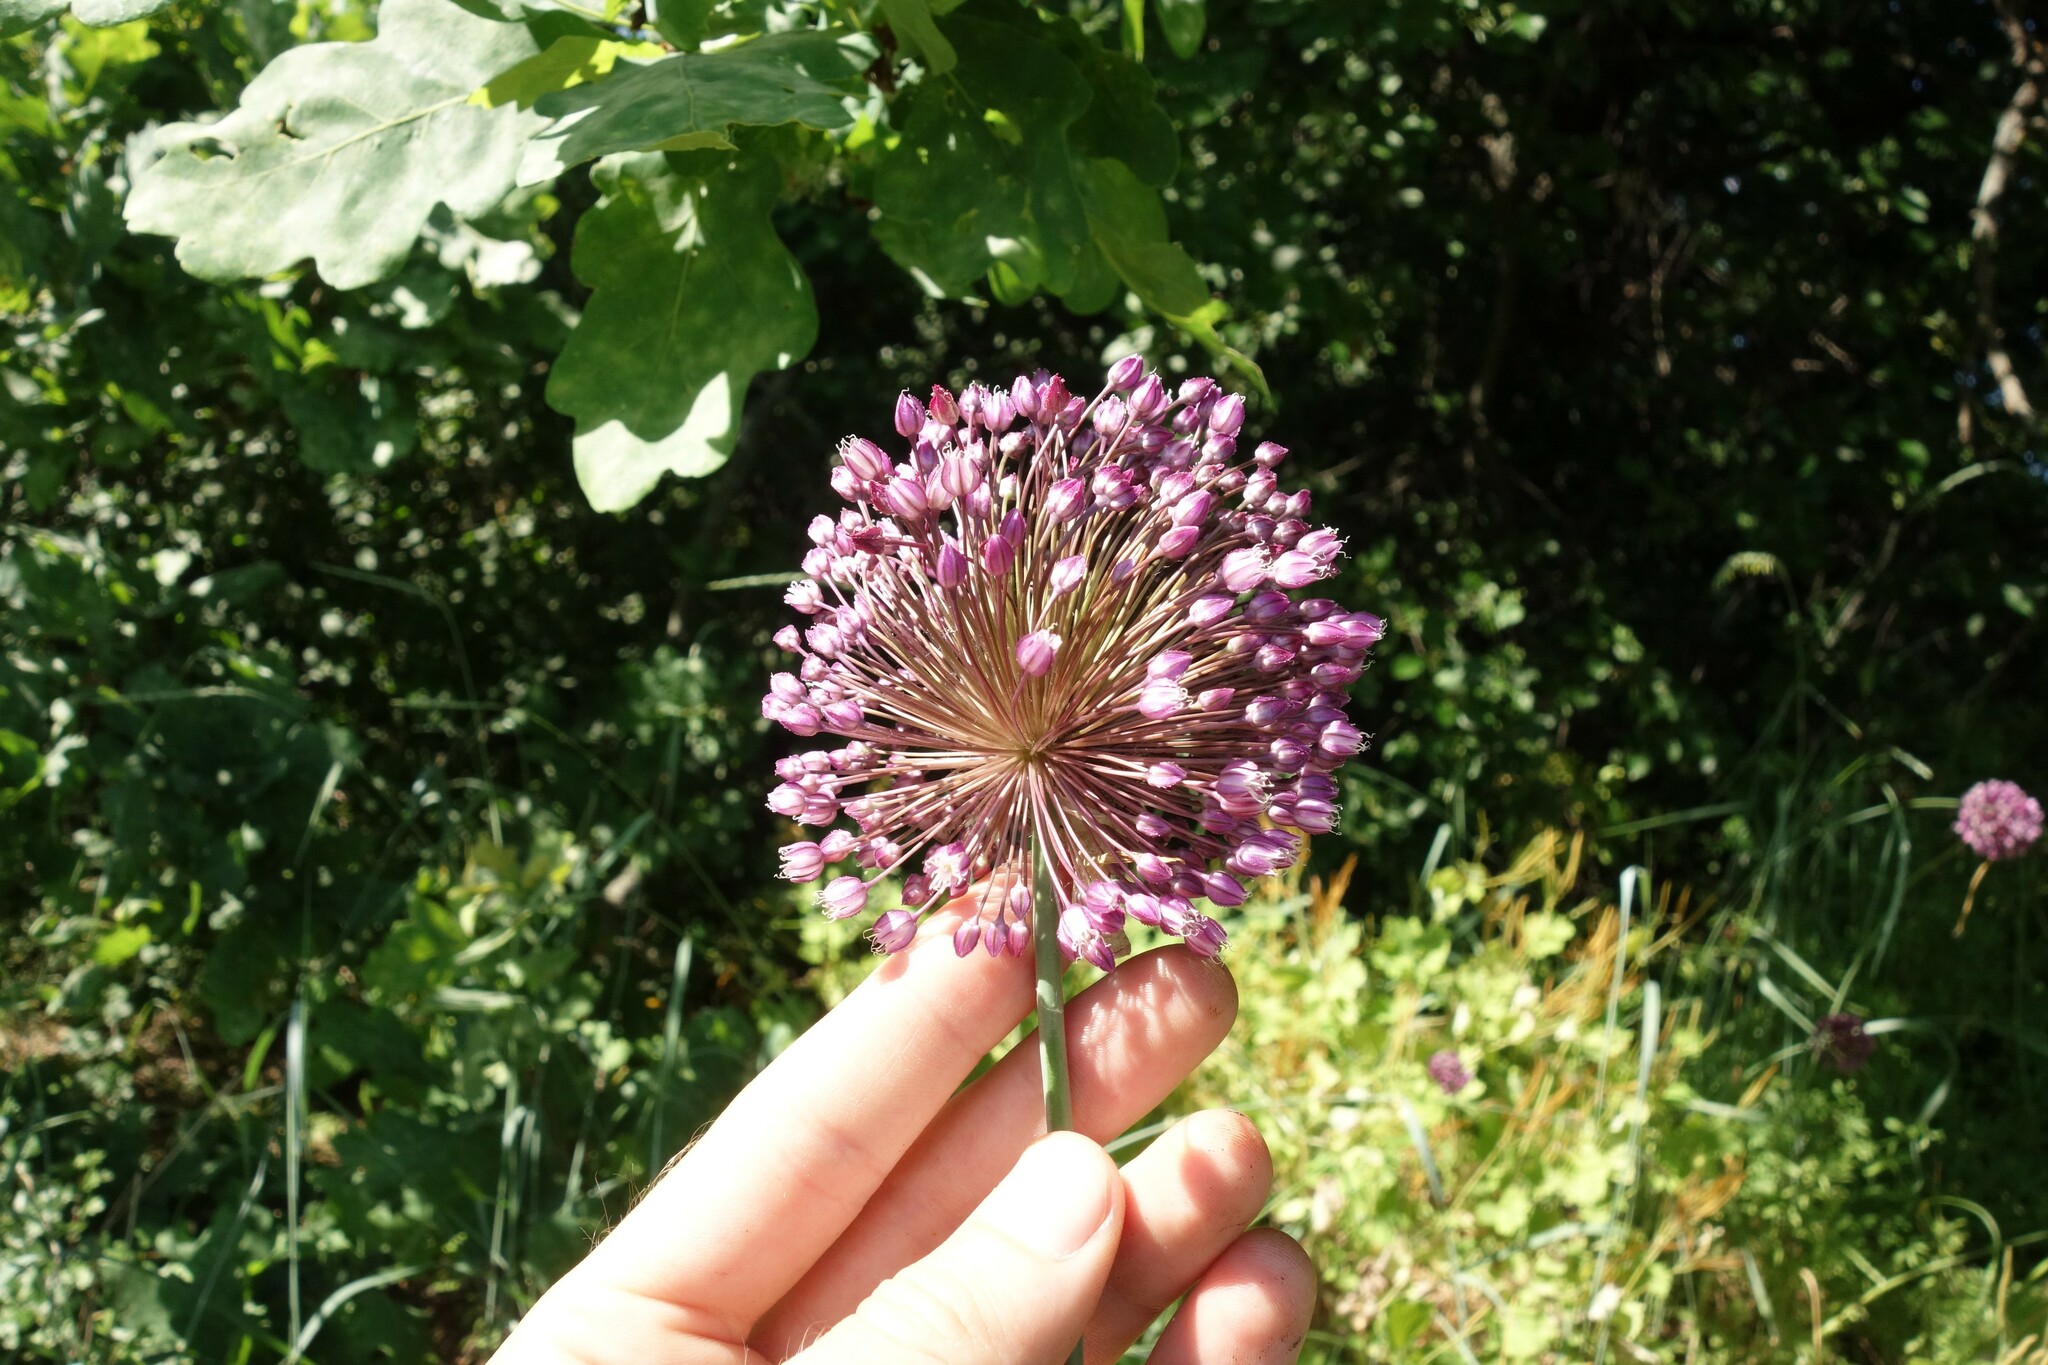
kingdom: Plantae
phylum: Tracheophyta
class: Liliopsida
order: Asparagales
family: Amaryllidaceae
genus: Allium
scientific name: Allium rotundum
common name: Sand leek
